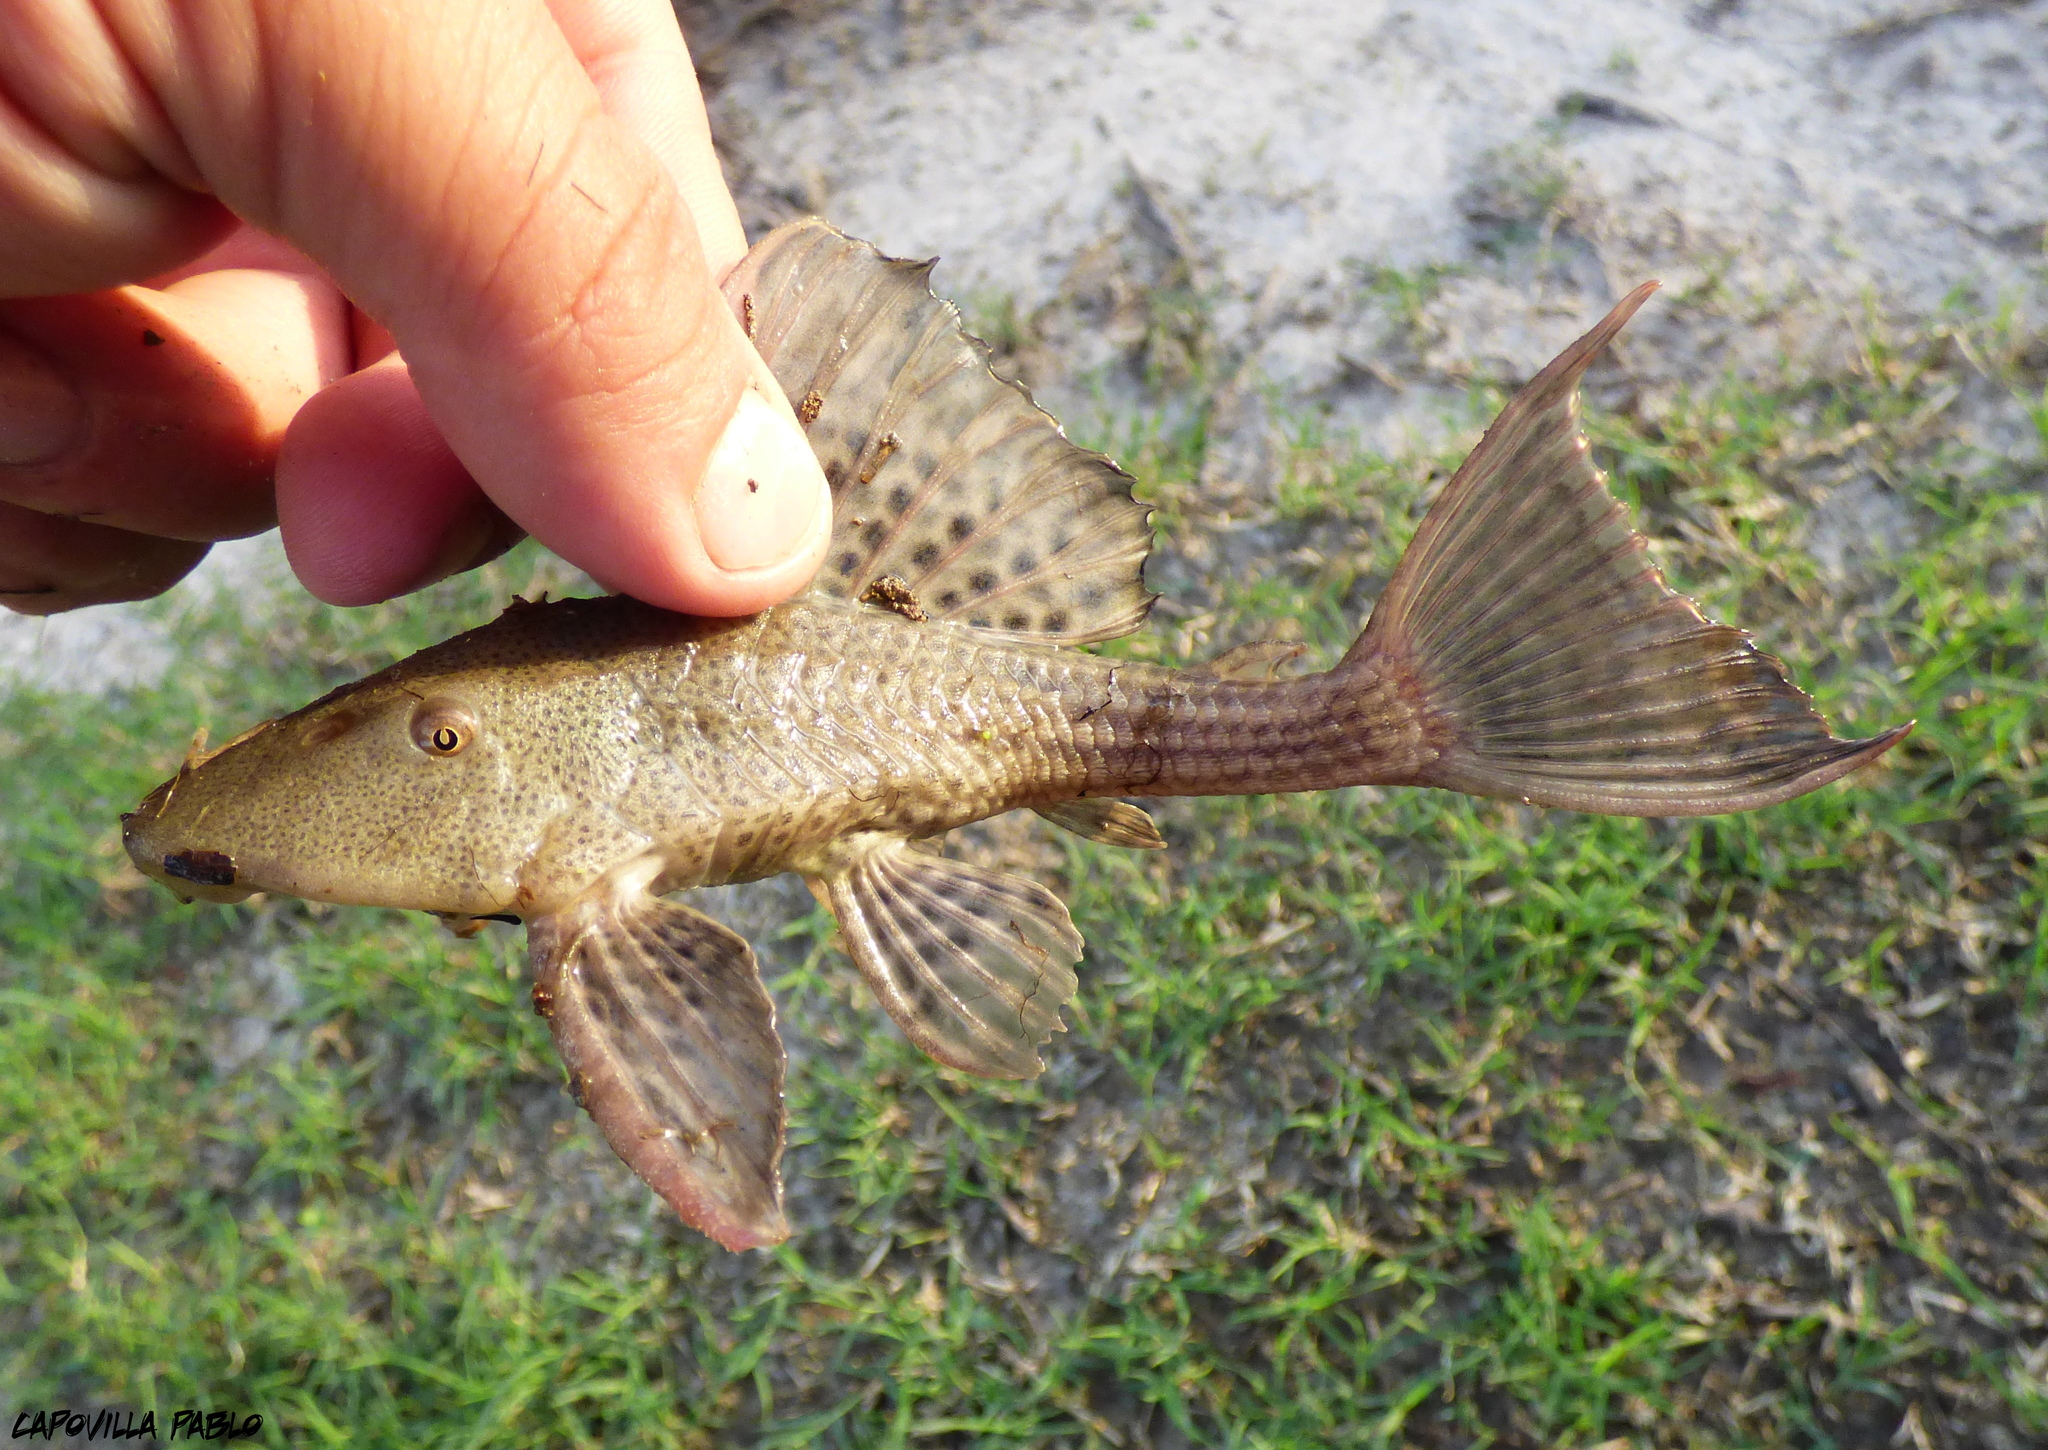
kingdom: Animalia
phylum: Chordata
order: Siluriformes
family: Loricariidae
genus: Hypostomus
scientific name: Hypostomus commersoni
